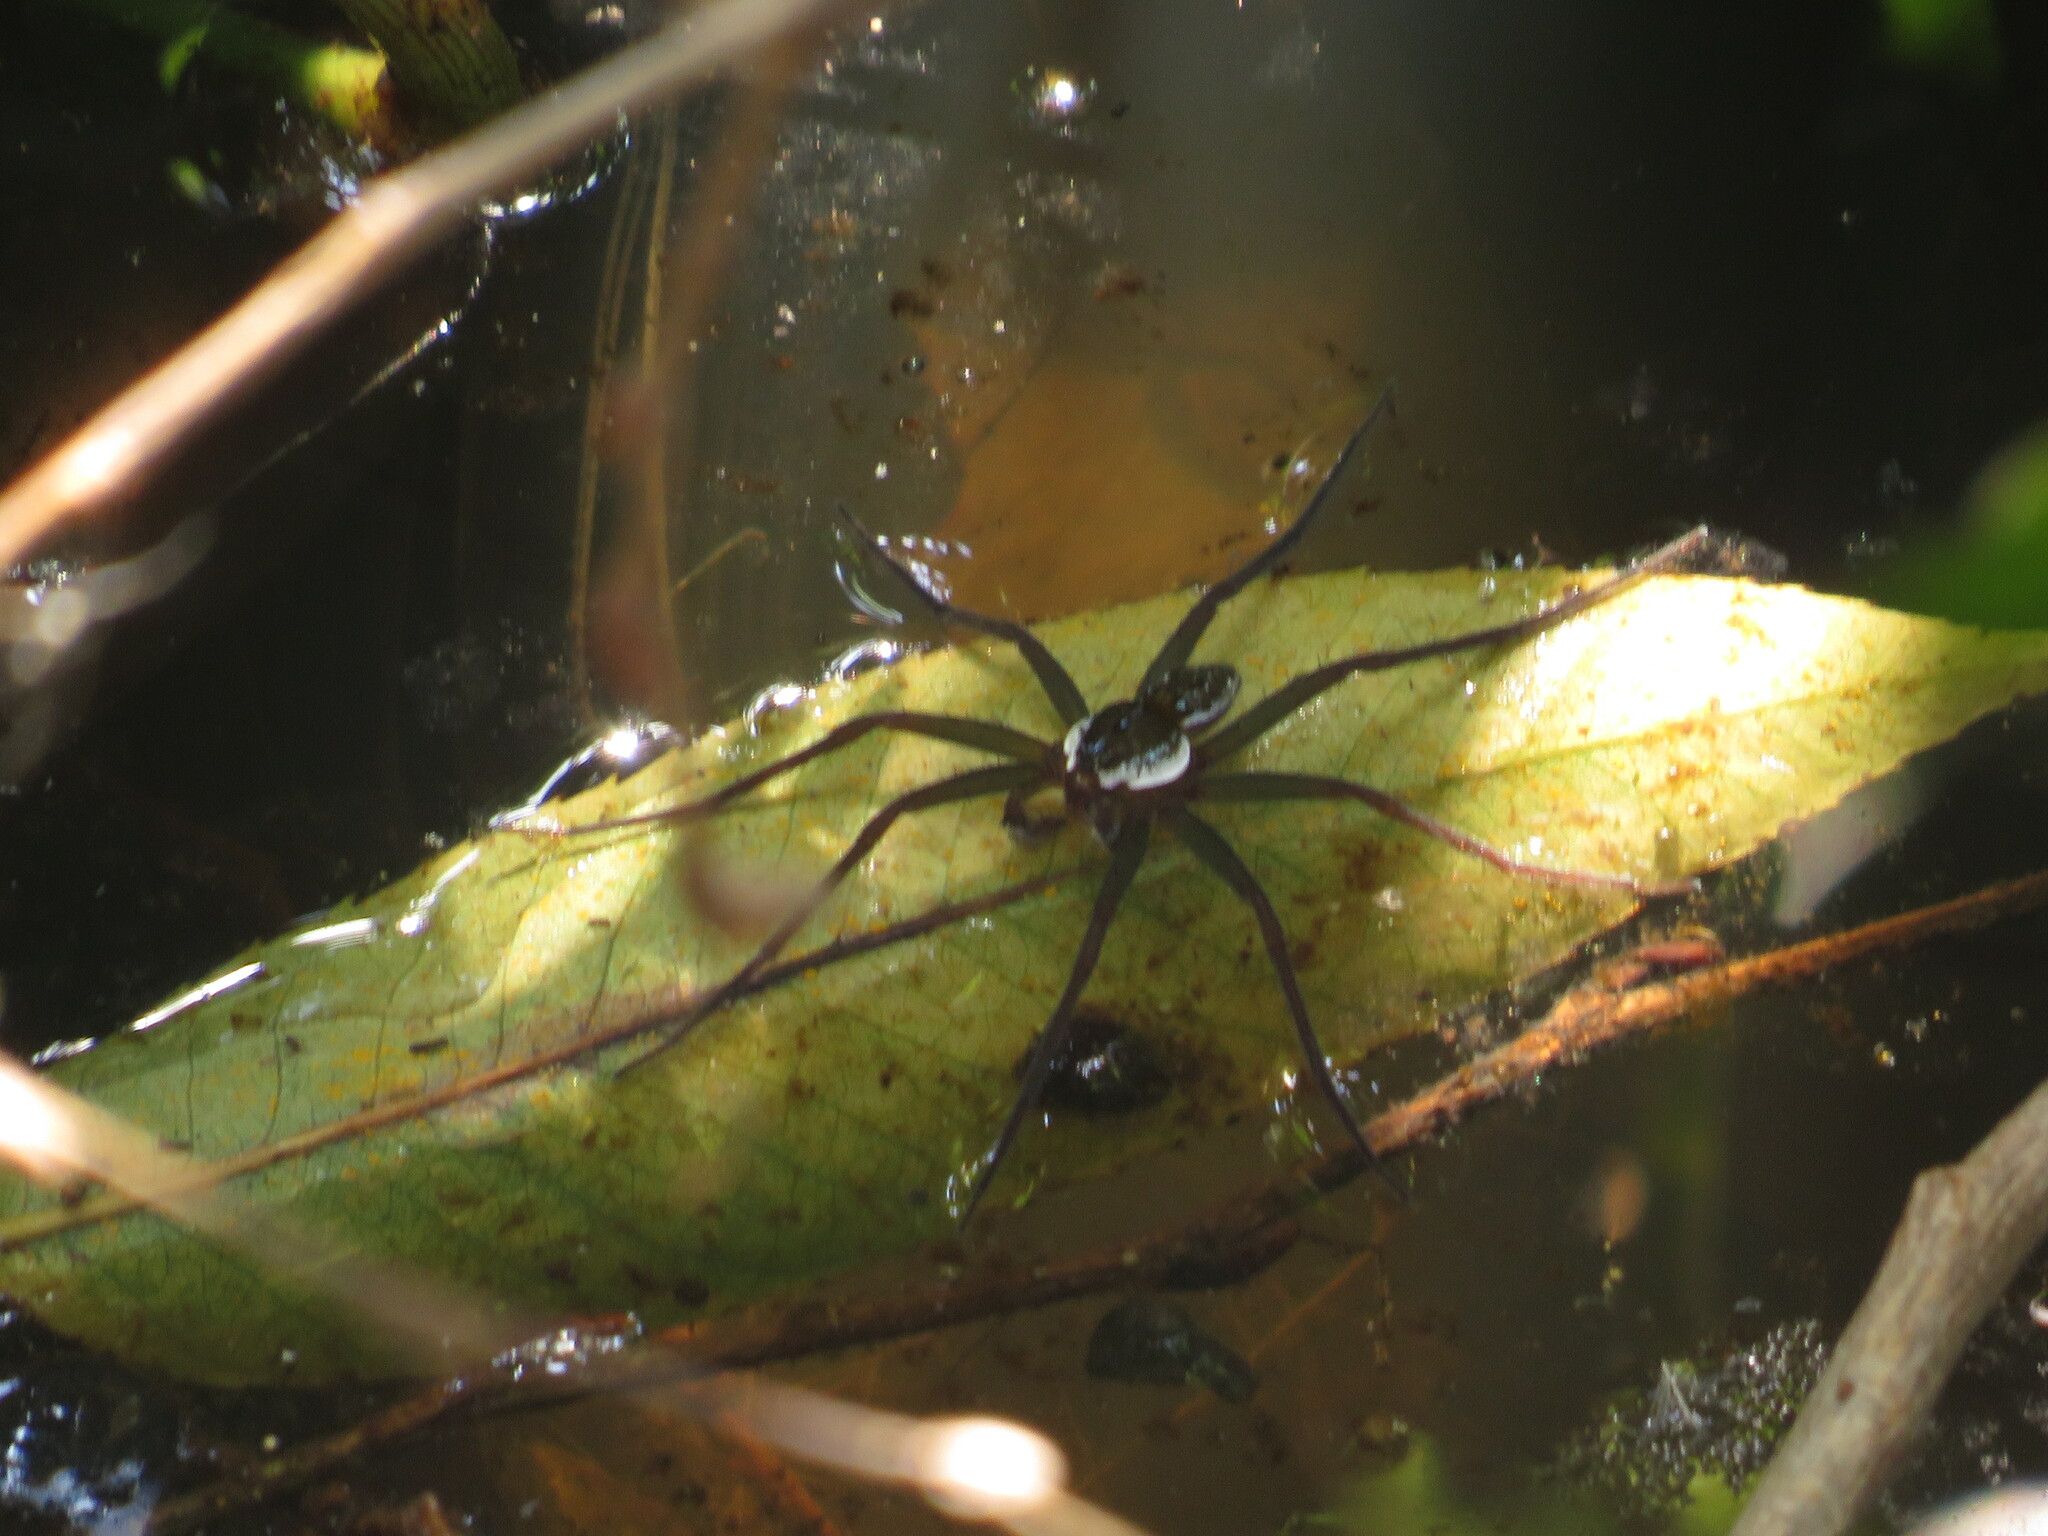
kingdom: Animalia
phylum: Arthropoda
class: Arachnida
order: Araneae
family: Pisauridae
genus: Thaumasia
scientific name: Thaumasia velox
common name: Nursery web spiders
